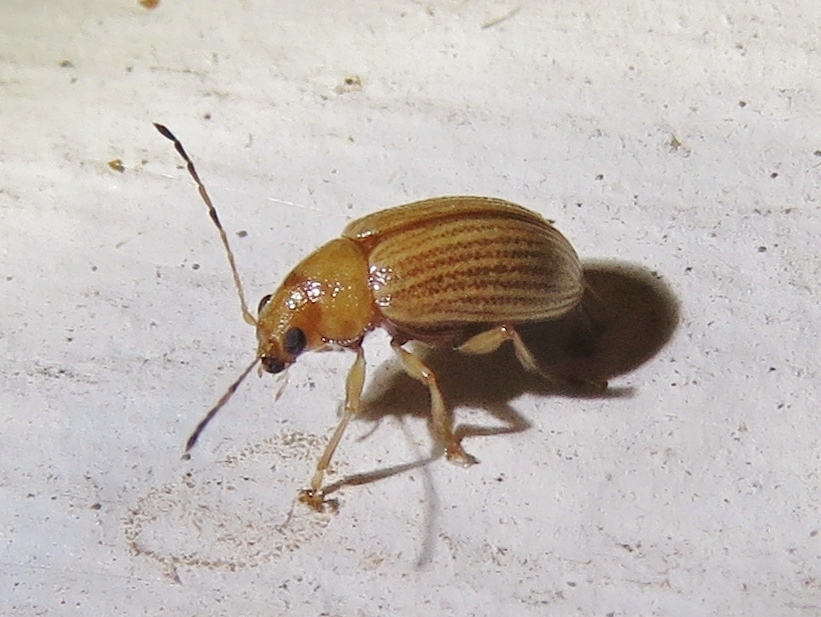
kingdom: Animalia
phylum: Arthropoda
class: Insecta
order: Coleoptera
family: Chrysomelidae
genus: Colaspis
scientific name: Colaspis brunnea
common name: Grape colaspis
